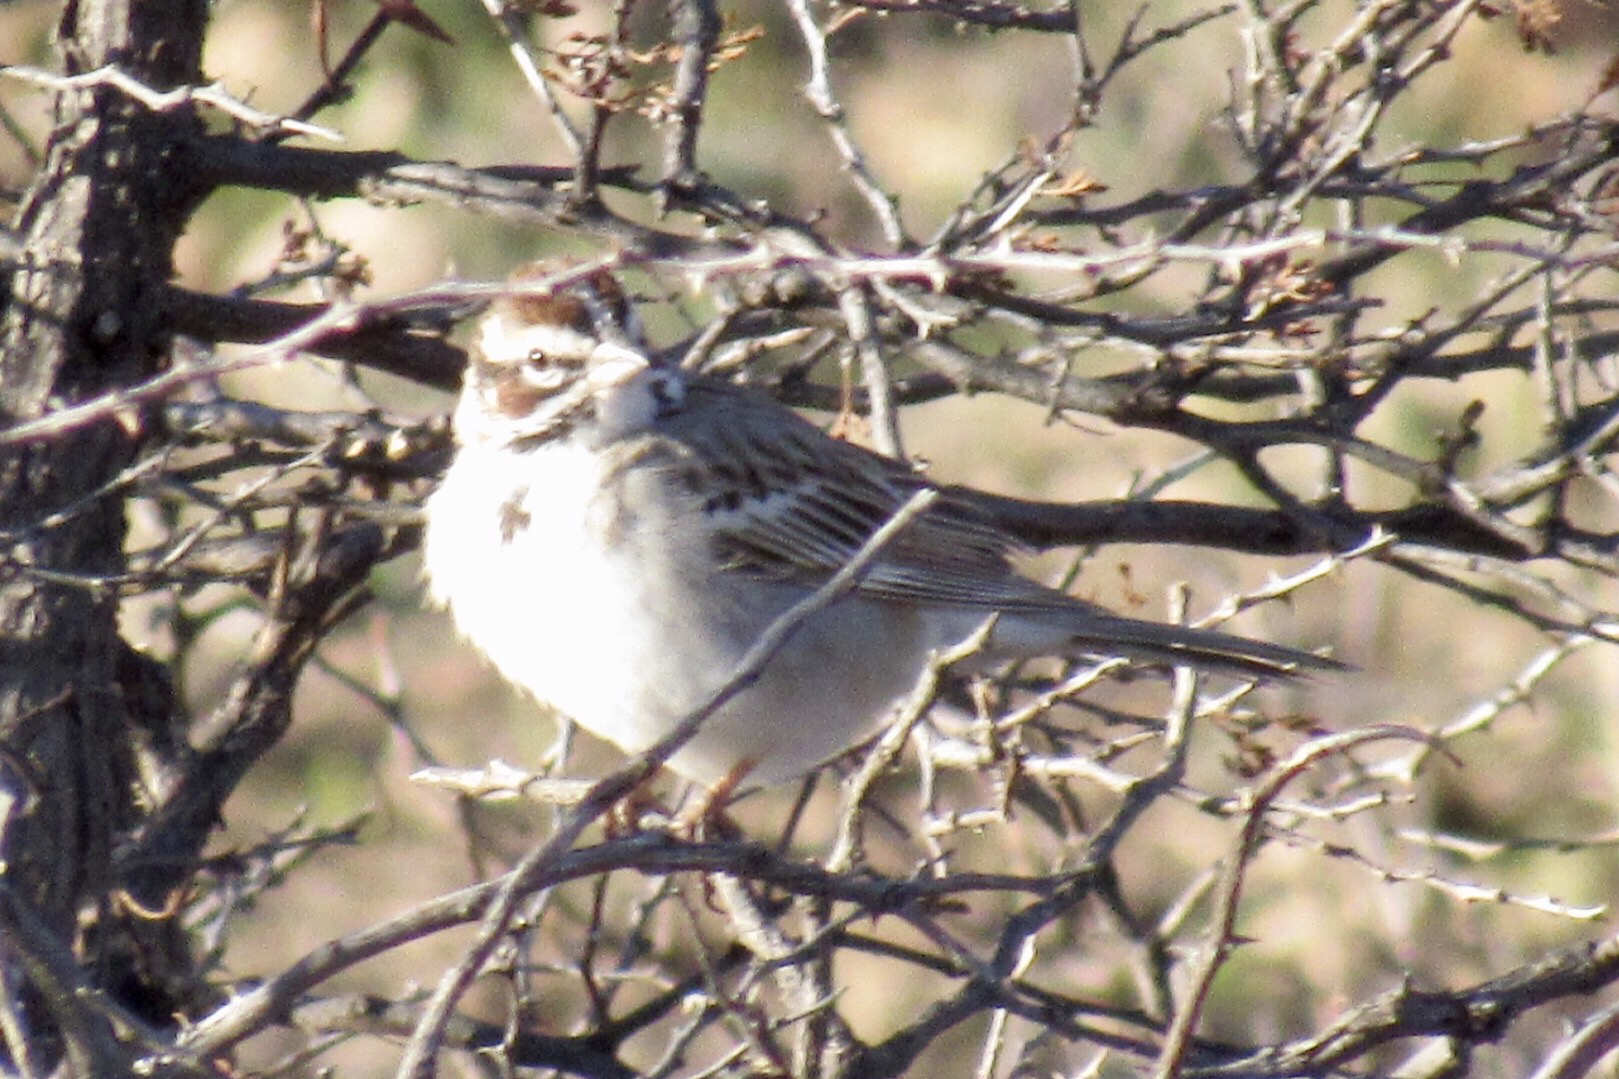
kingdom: Animalia
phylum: Chordata
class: Aves
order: Passeriformes
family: Passerellidae
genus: Chondestes
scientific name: Chondestes grammacus
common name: Lark sparrow
